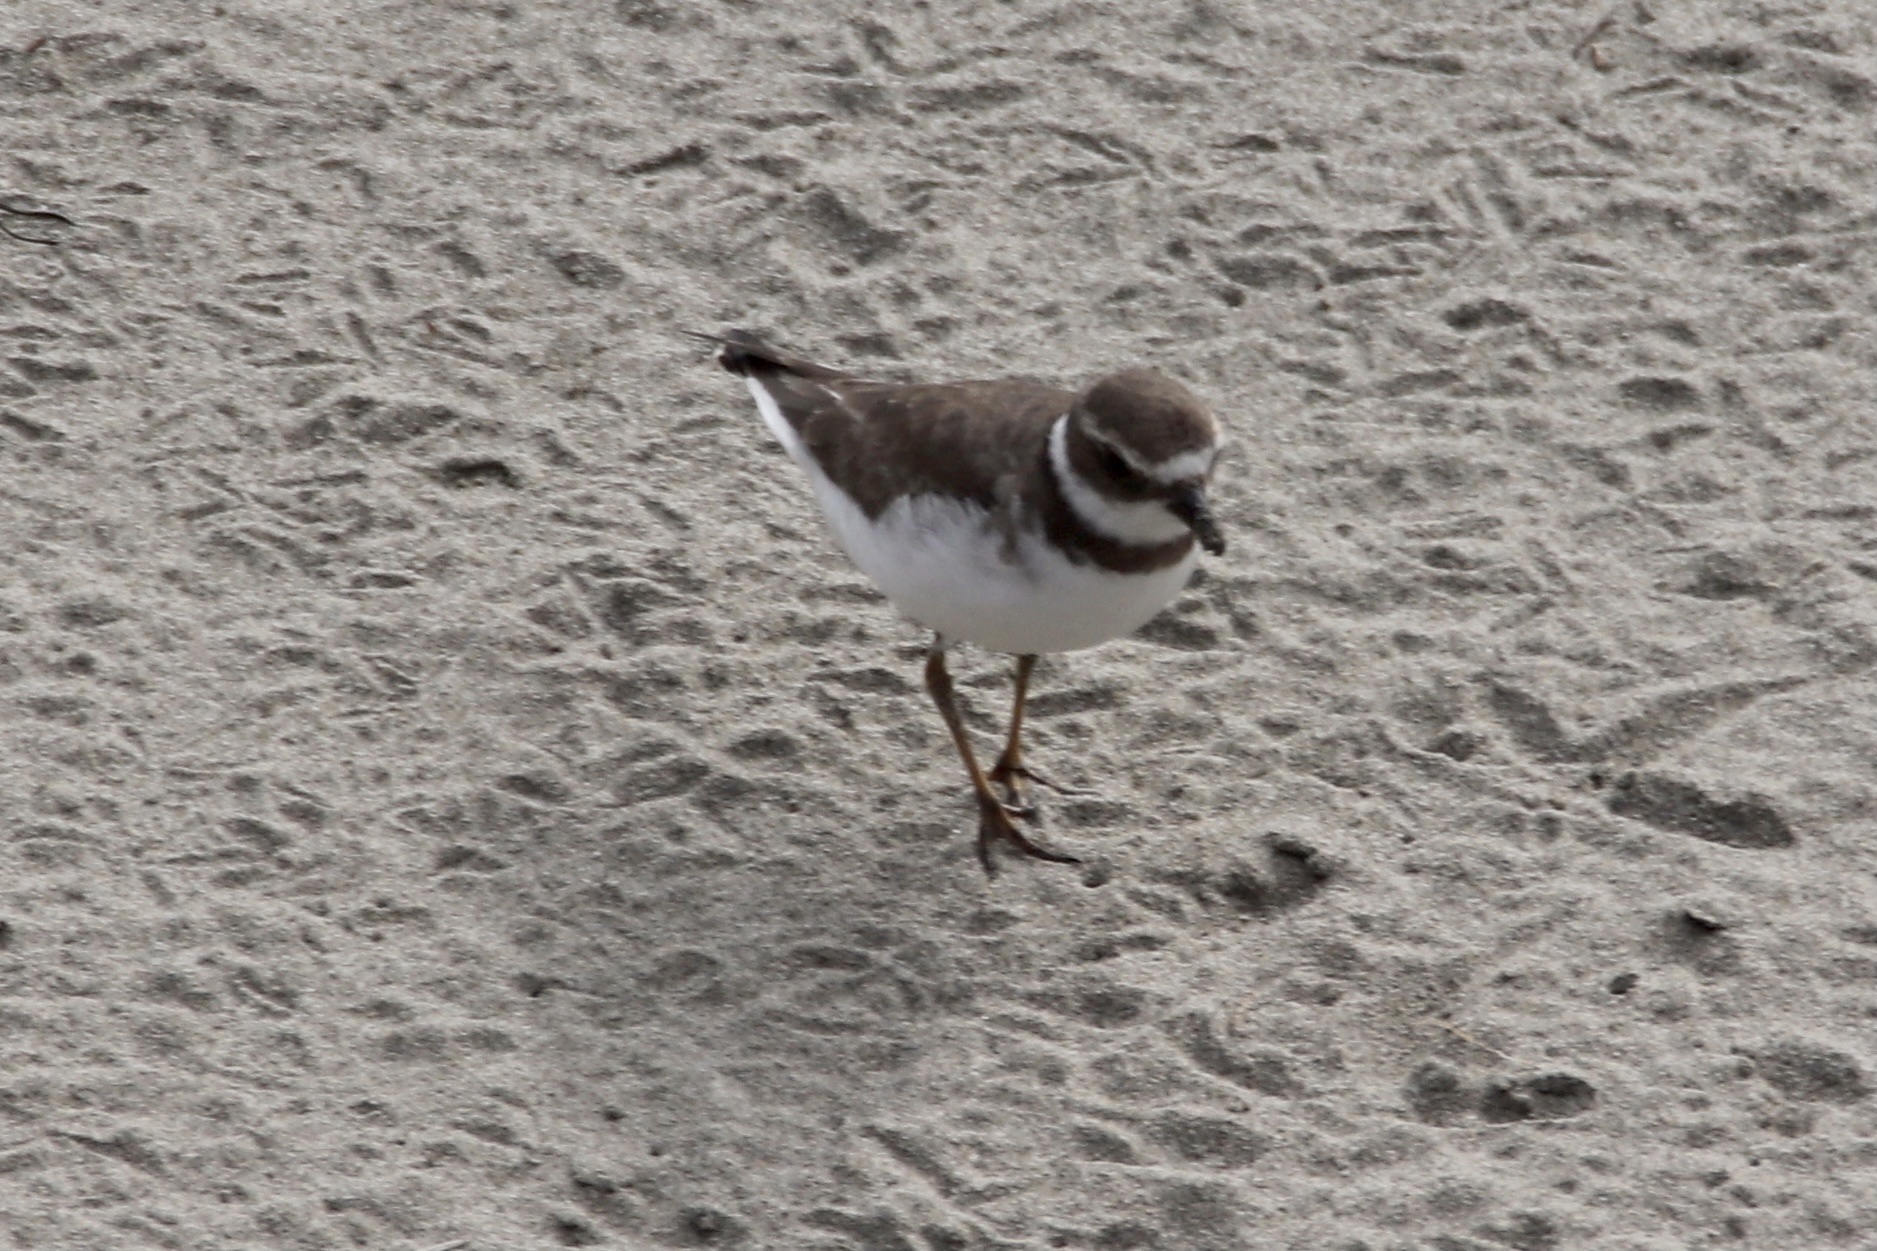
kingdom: Animalia
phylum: Chordata
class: Aves
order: Charadriiformes
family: Charadriidae
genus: Charadrius
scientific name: Charadrius vociferus
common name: Killdeer
